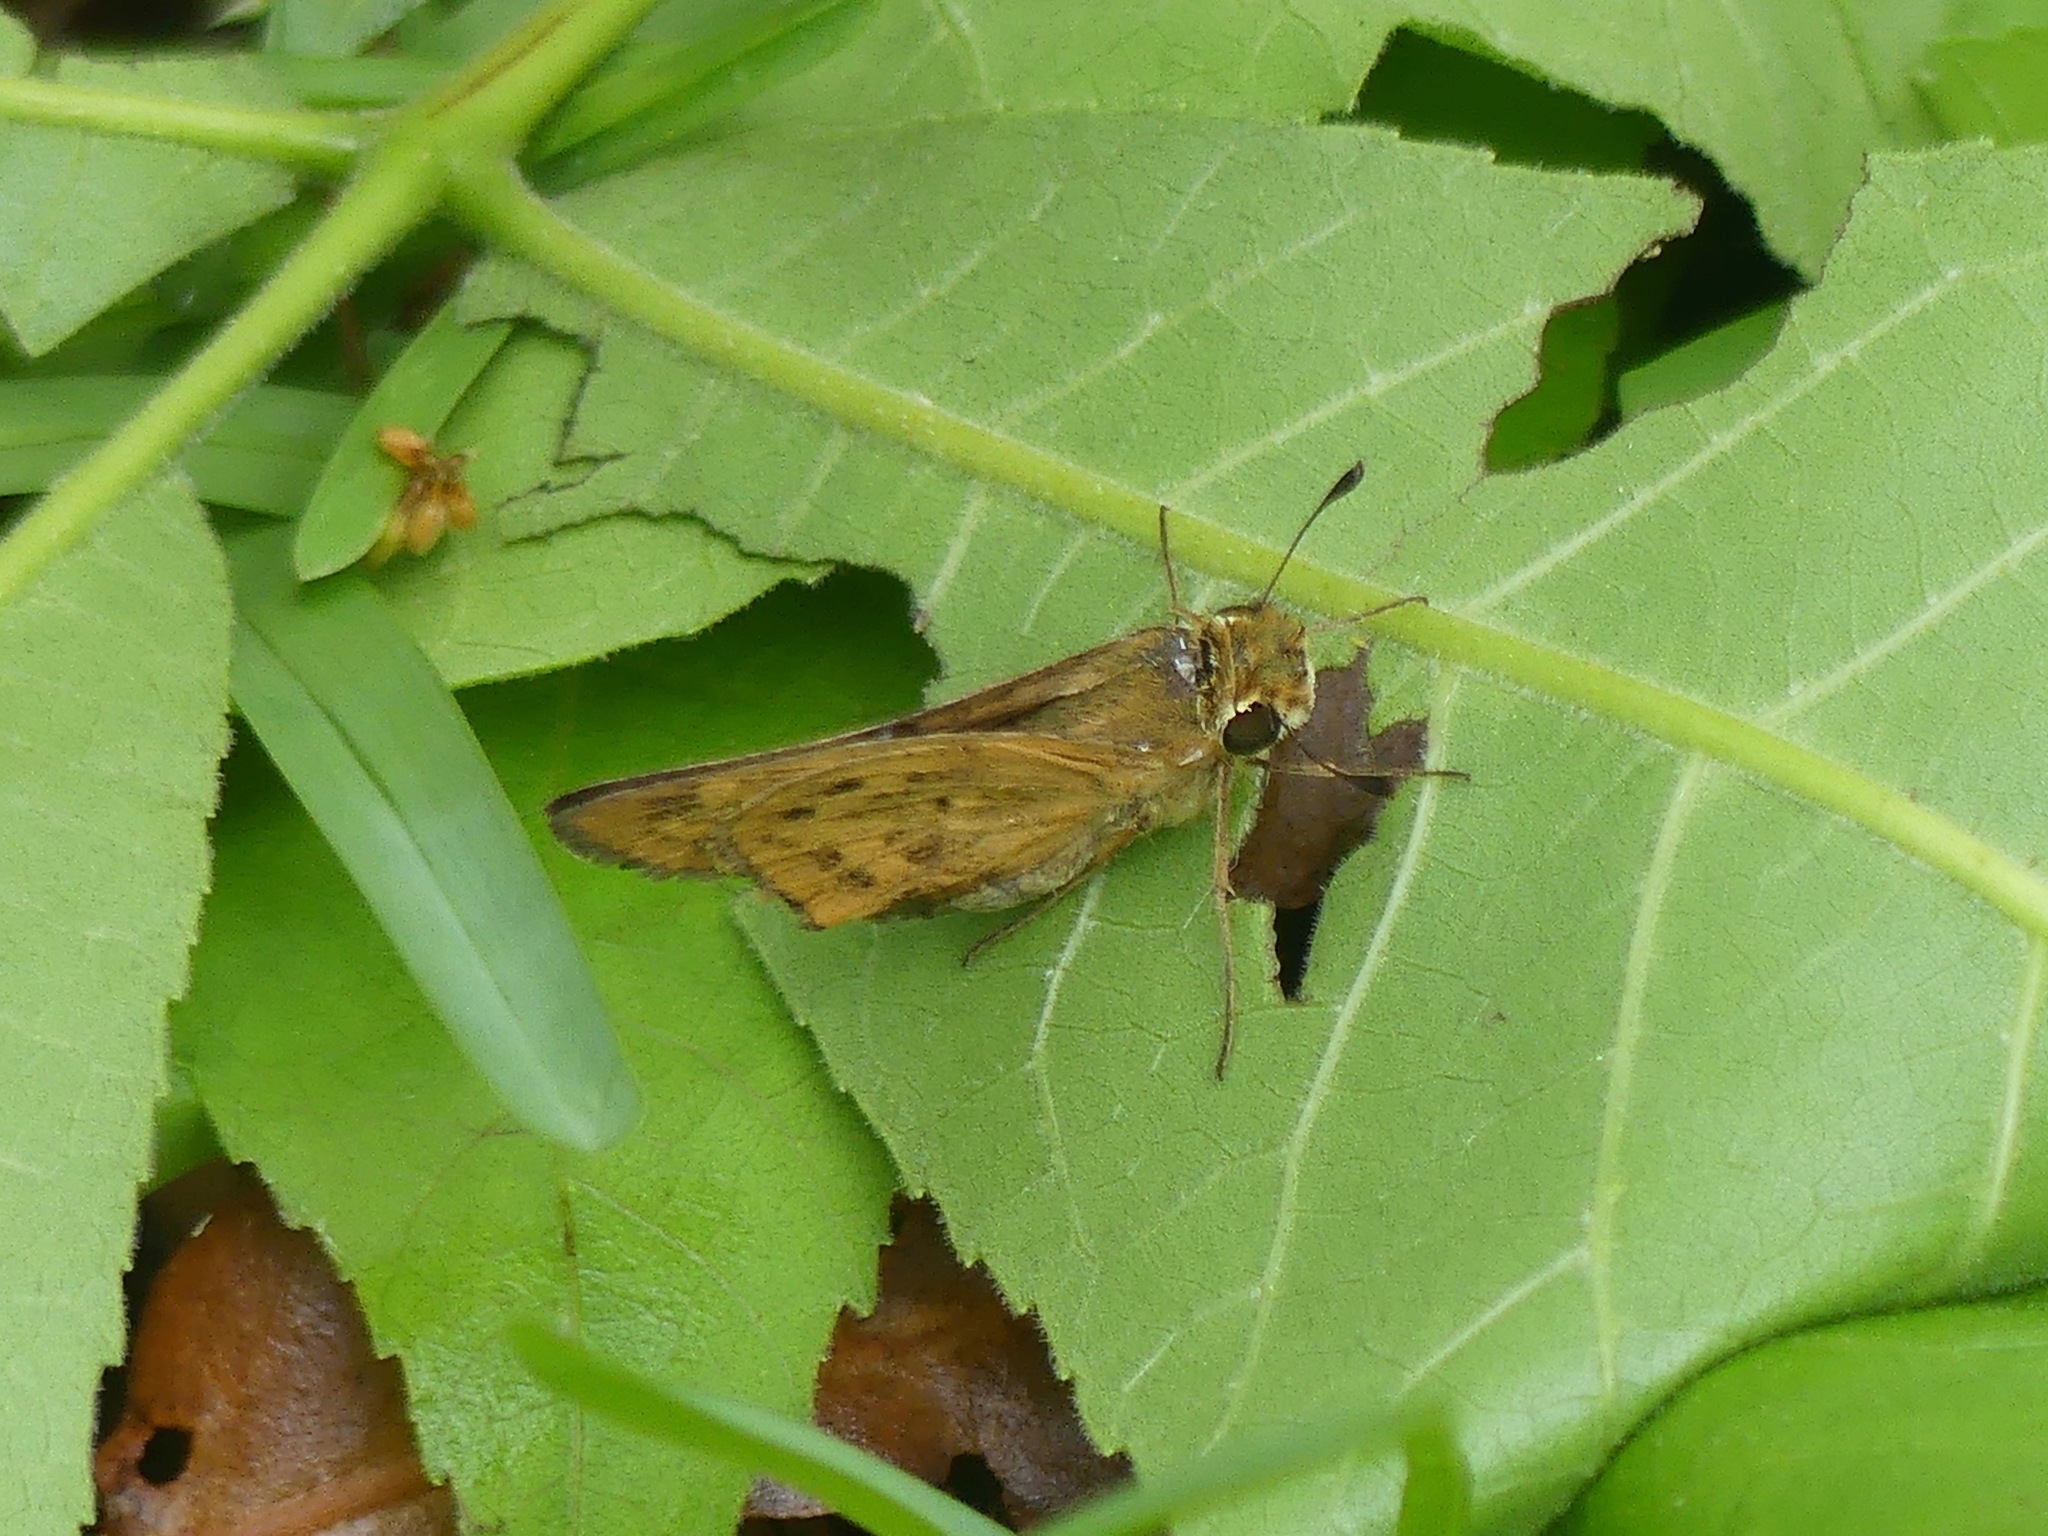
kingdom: Animalia
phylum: Arthropoda
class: Insecta
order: Lepidoptera
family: Hesperiidae
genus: Hylephila
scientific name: Hylephila phyleus
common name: Fiery skipper
